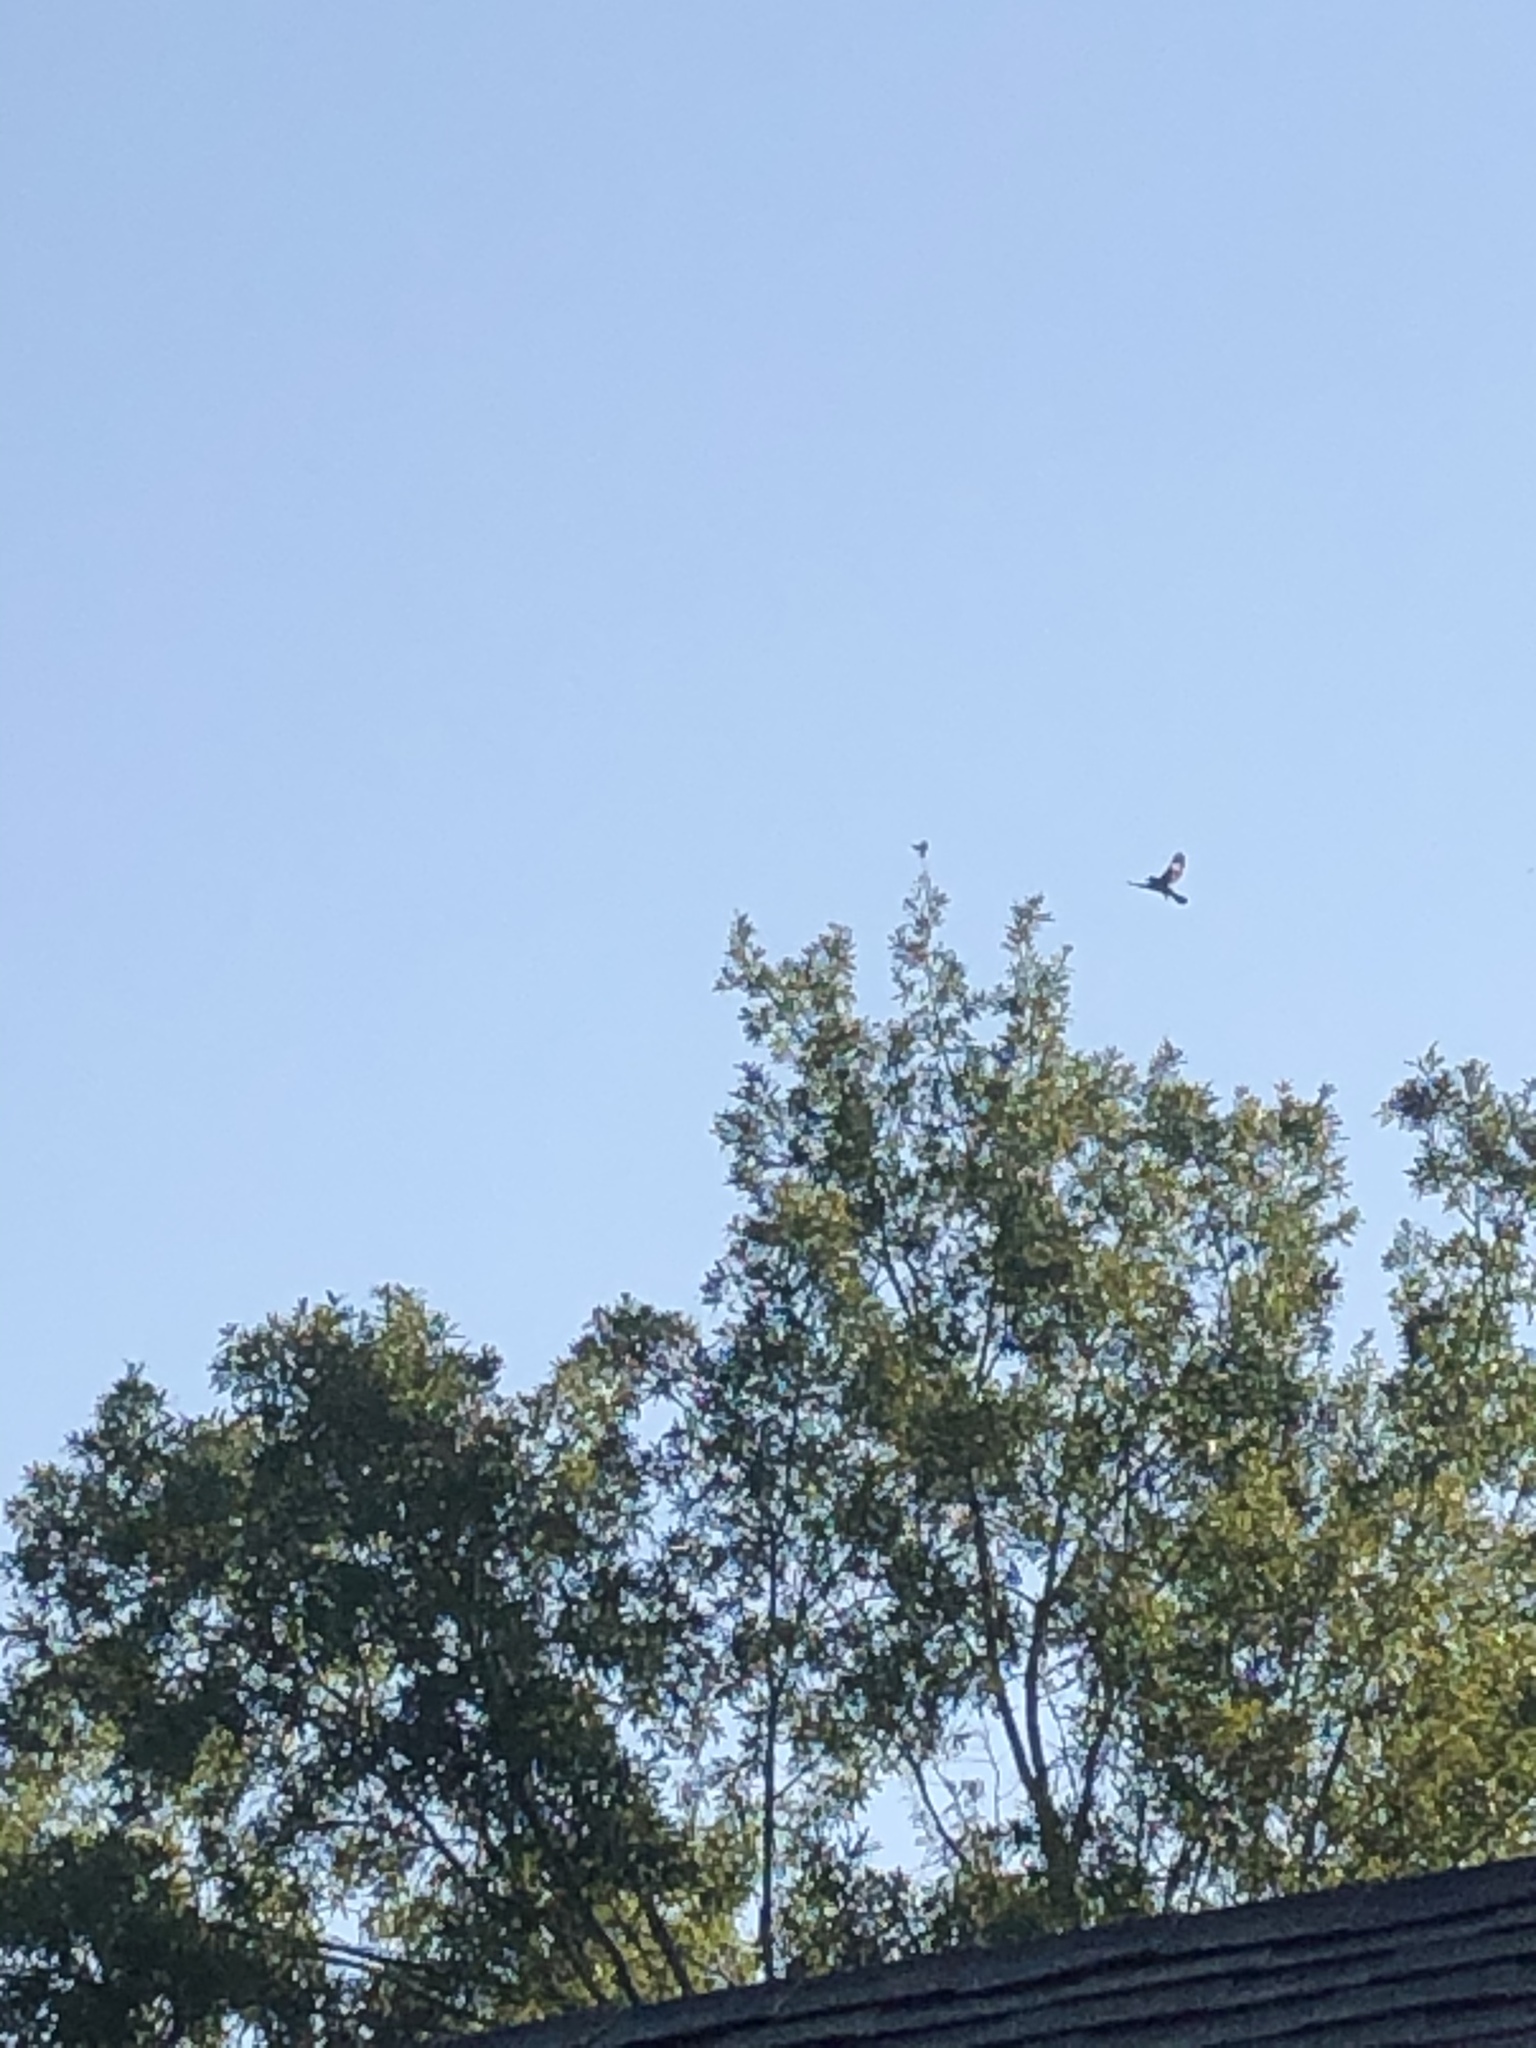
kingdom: Animalia
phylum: Chordata
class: Aves
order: Passeriformes
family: Mimidae
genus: Mimus
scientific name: Mimus polyglottos
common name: Northern mockingbird
